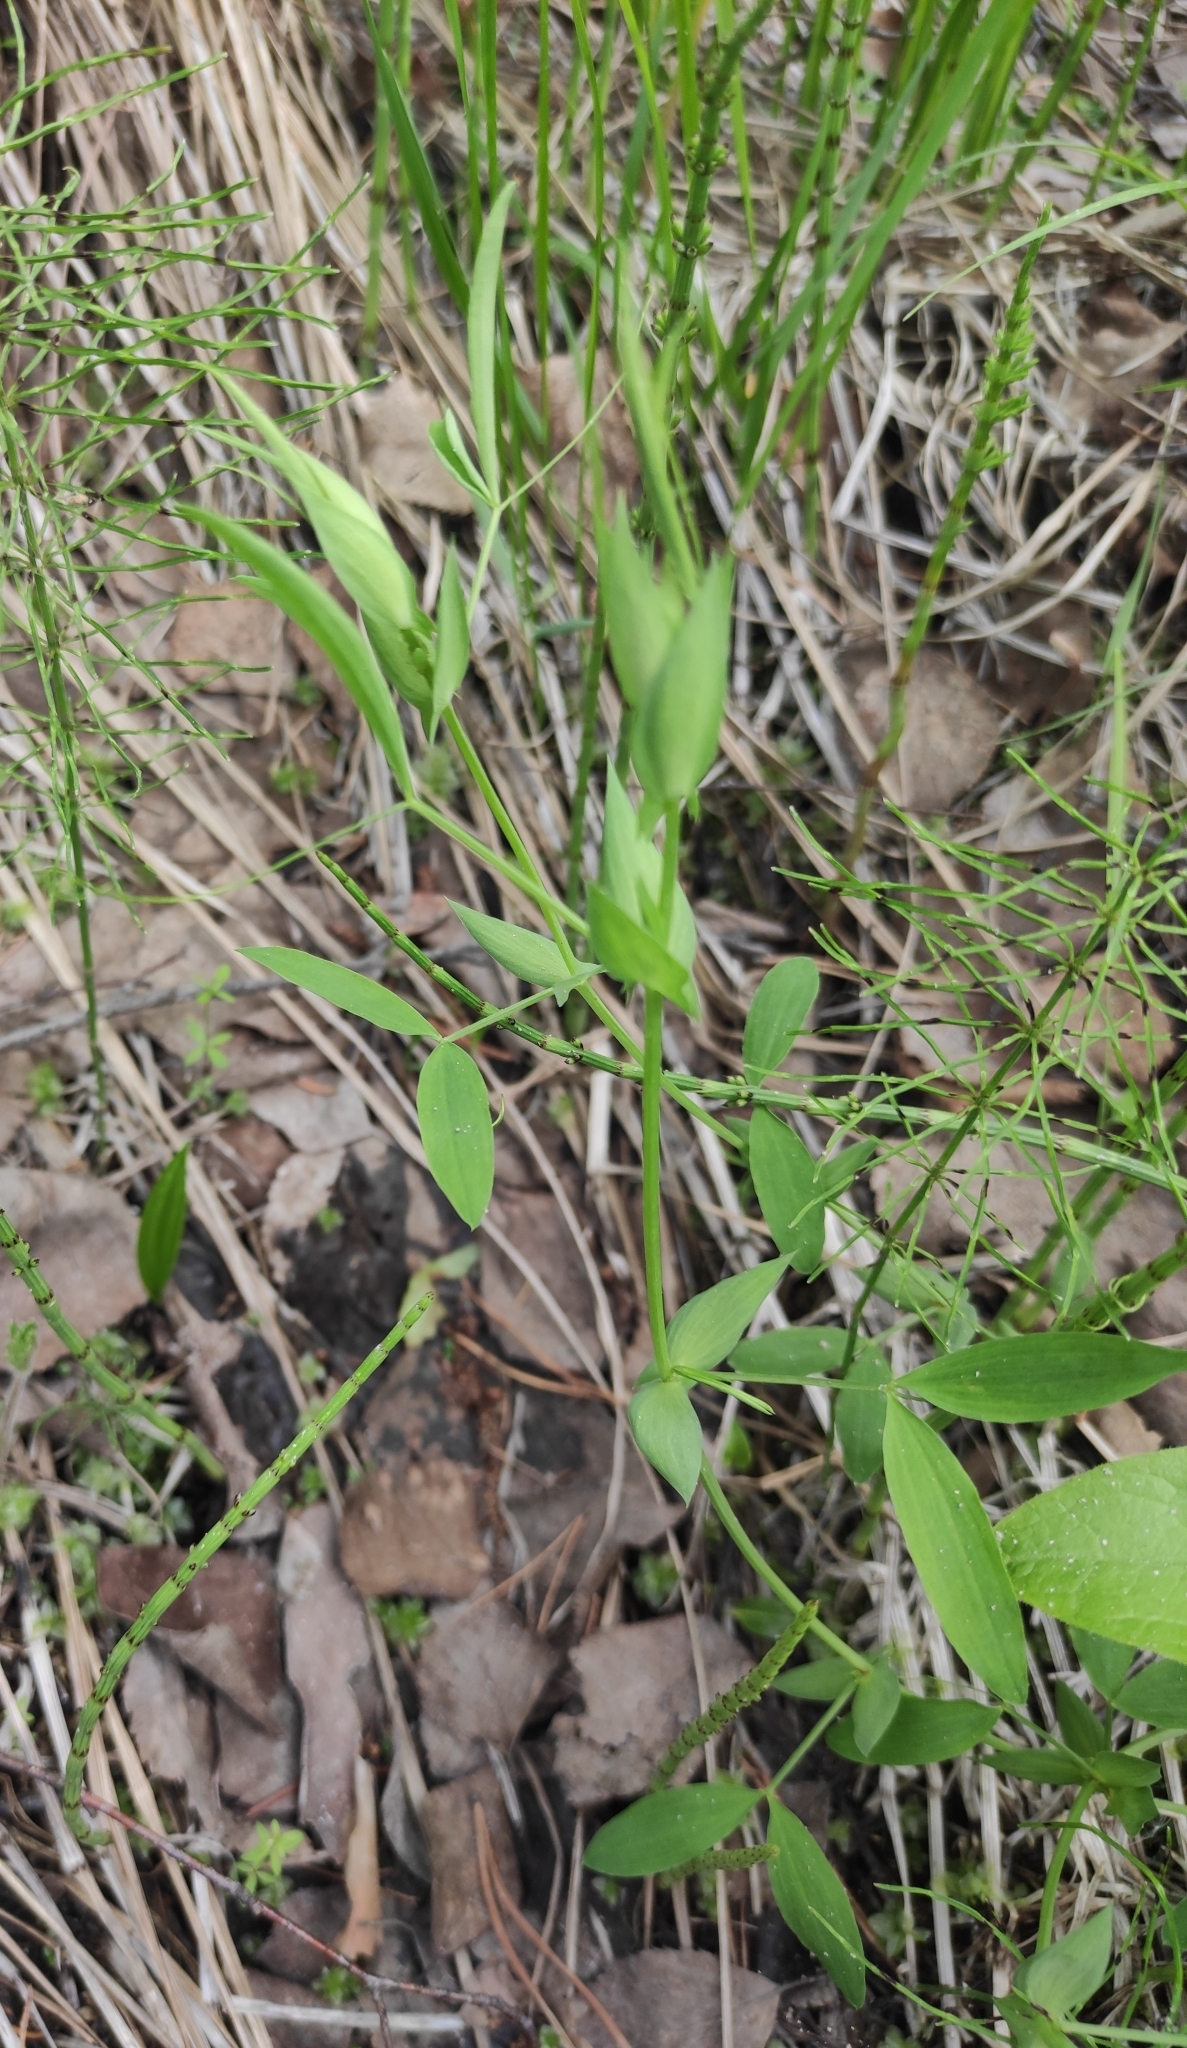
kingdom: Plantae
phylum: Tracheophyta
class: Magnoliopsida
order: Fabales
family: Fabaceae
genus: Lathyrus
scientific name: Lathyrus pratensis
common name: Meadow vetchling
